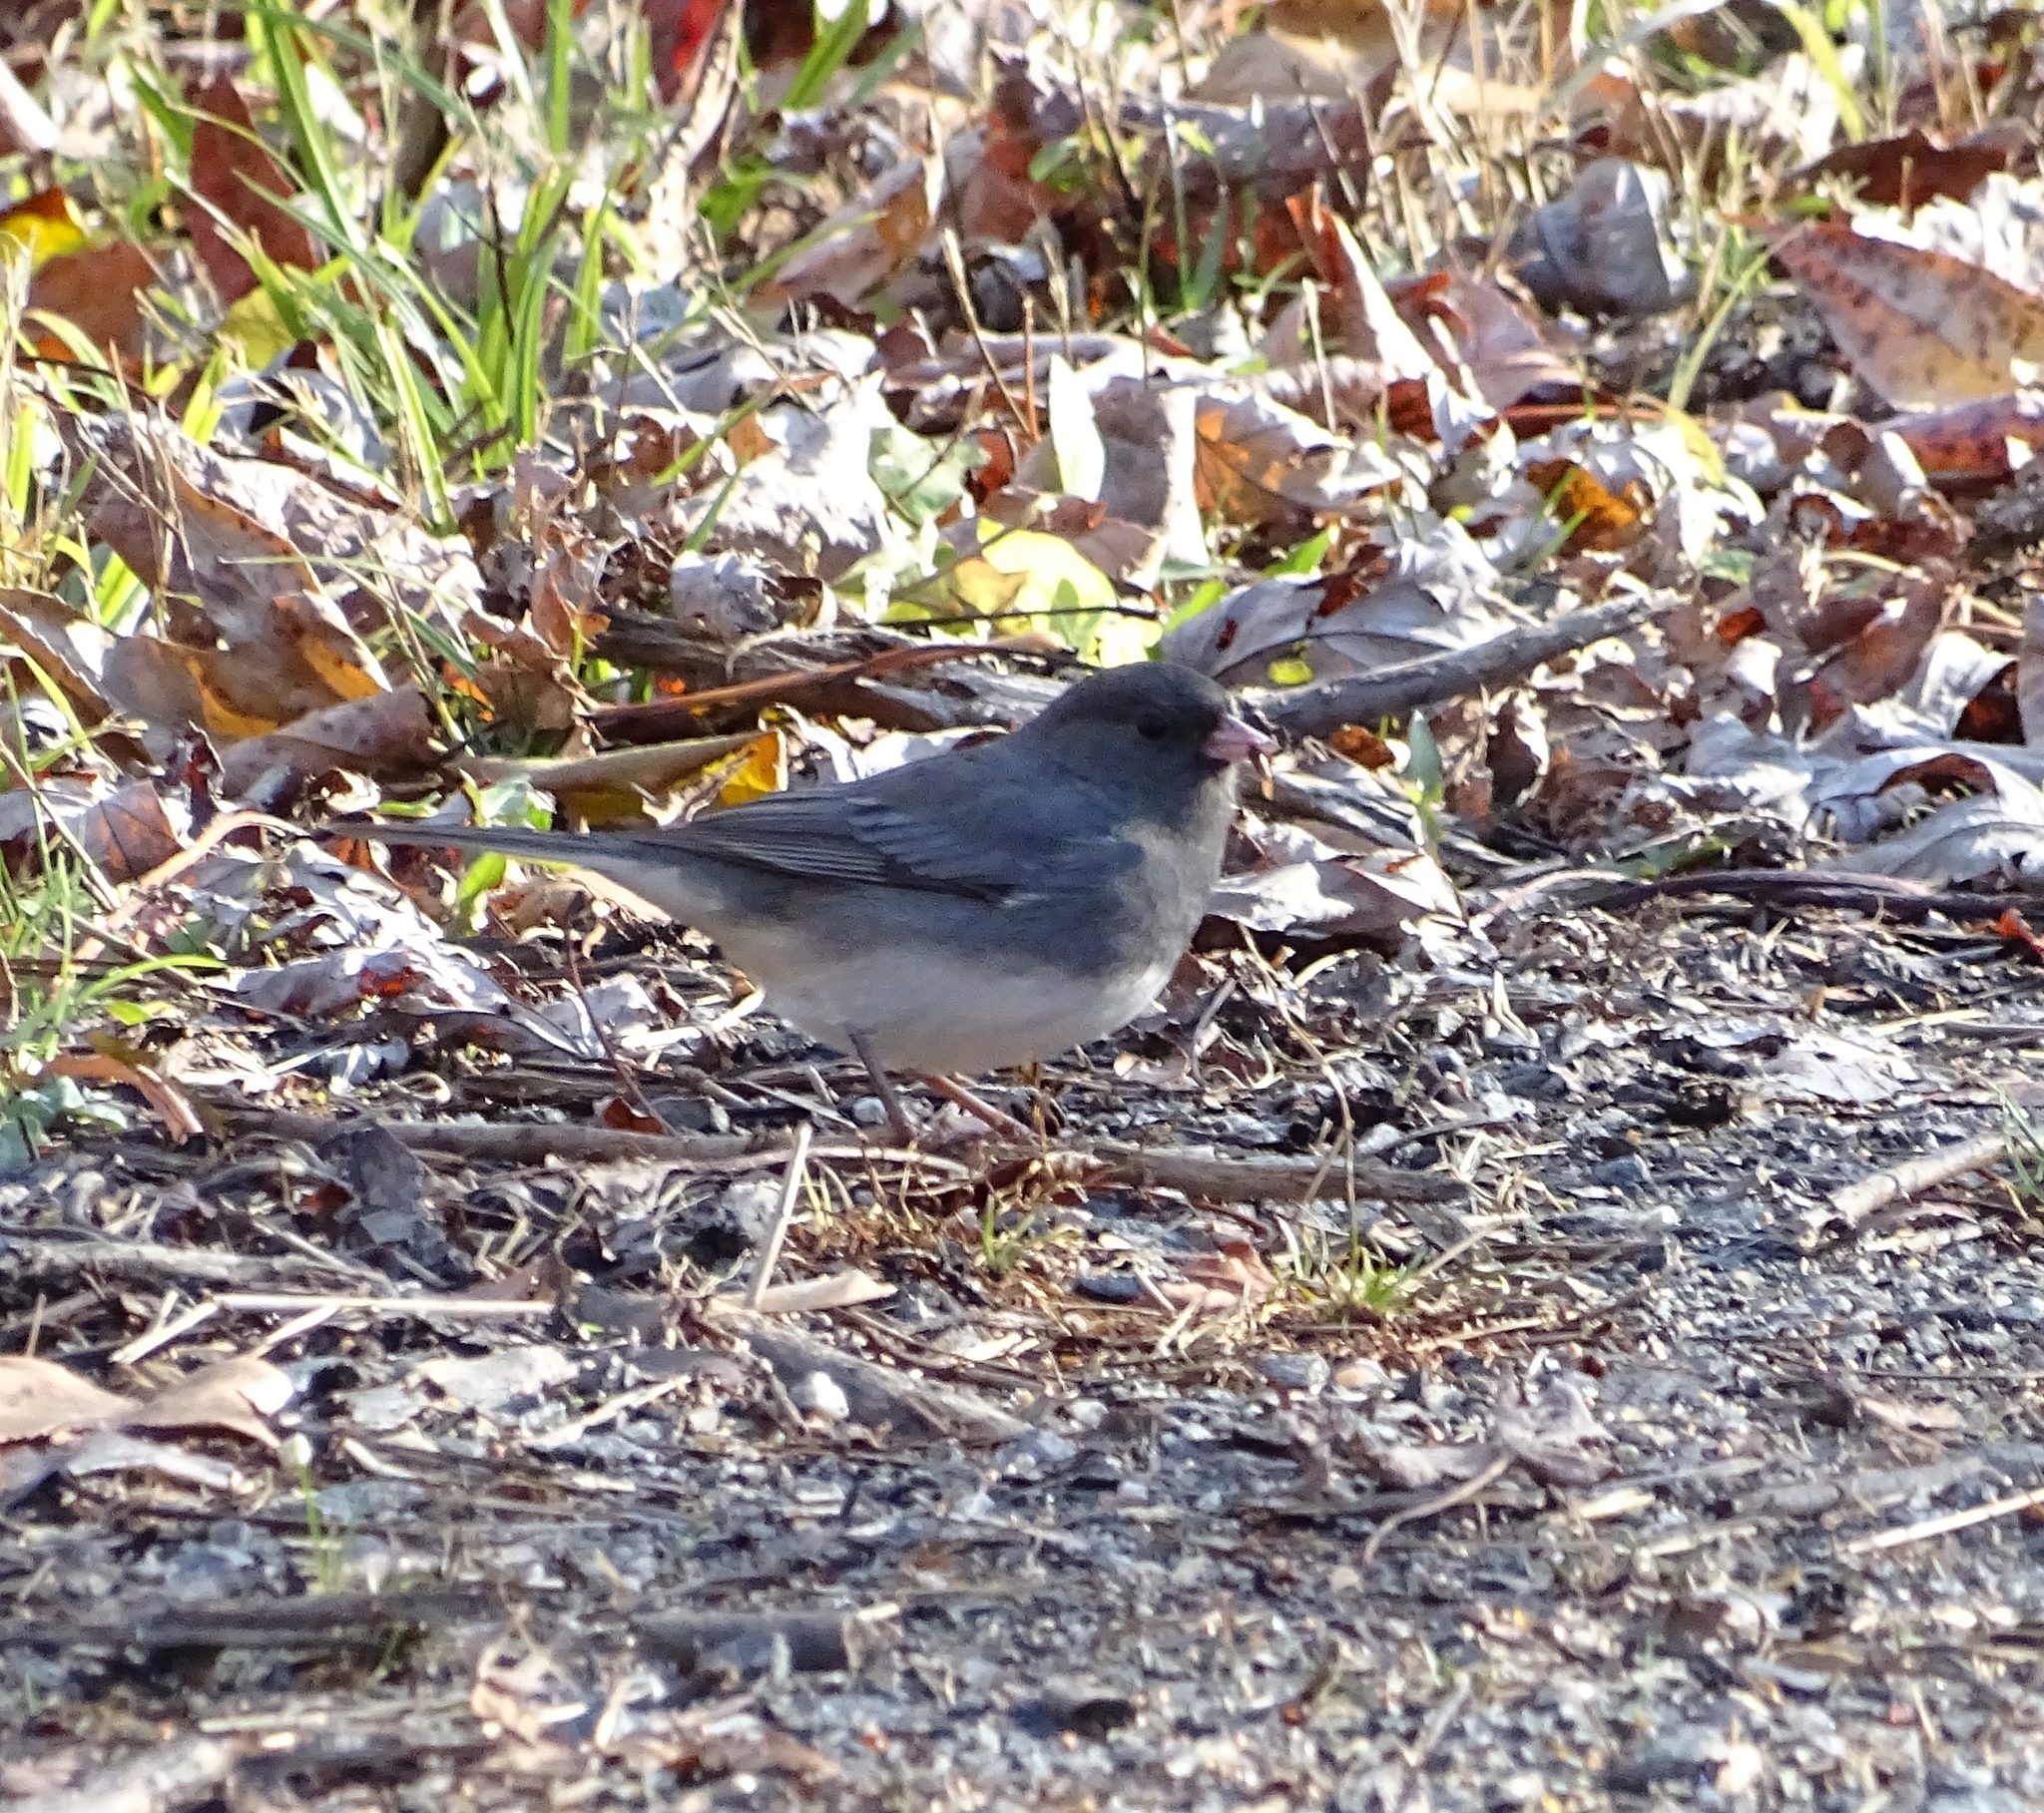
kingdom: Animalia
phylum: Chordata
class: Aves
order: Passeriformes
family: Passerellidae
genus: Junco
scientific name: Junco hyemalis
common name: Dark-eyed junco
